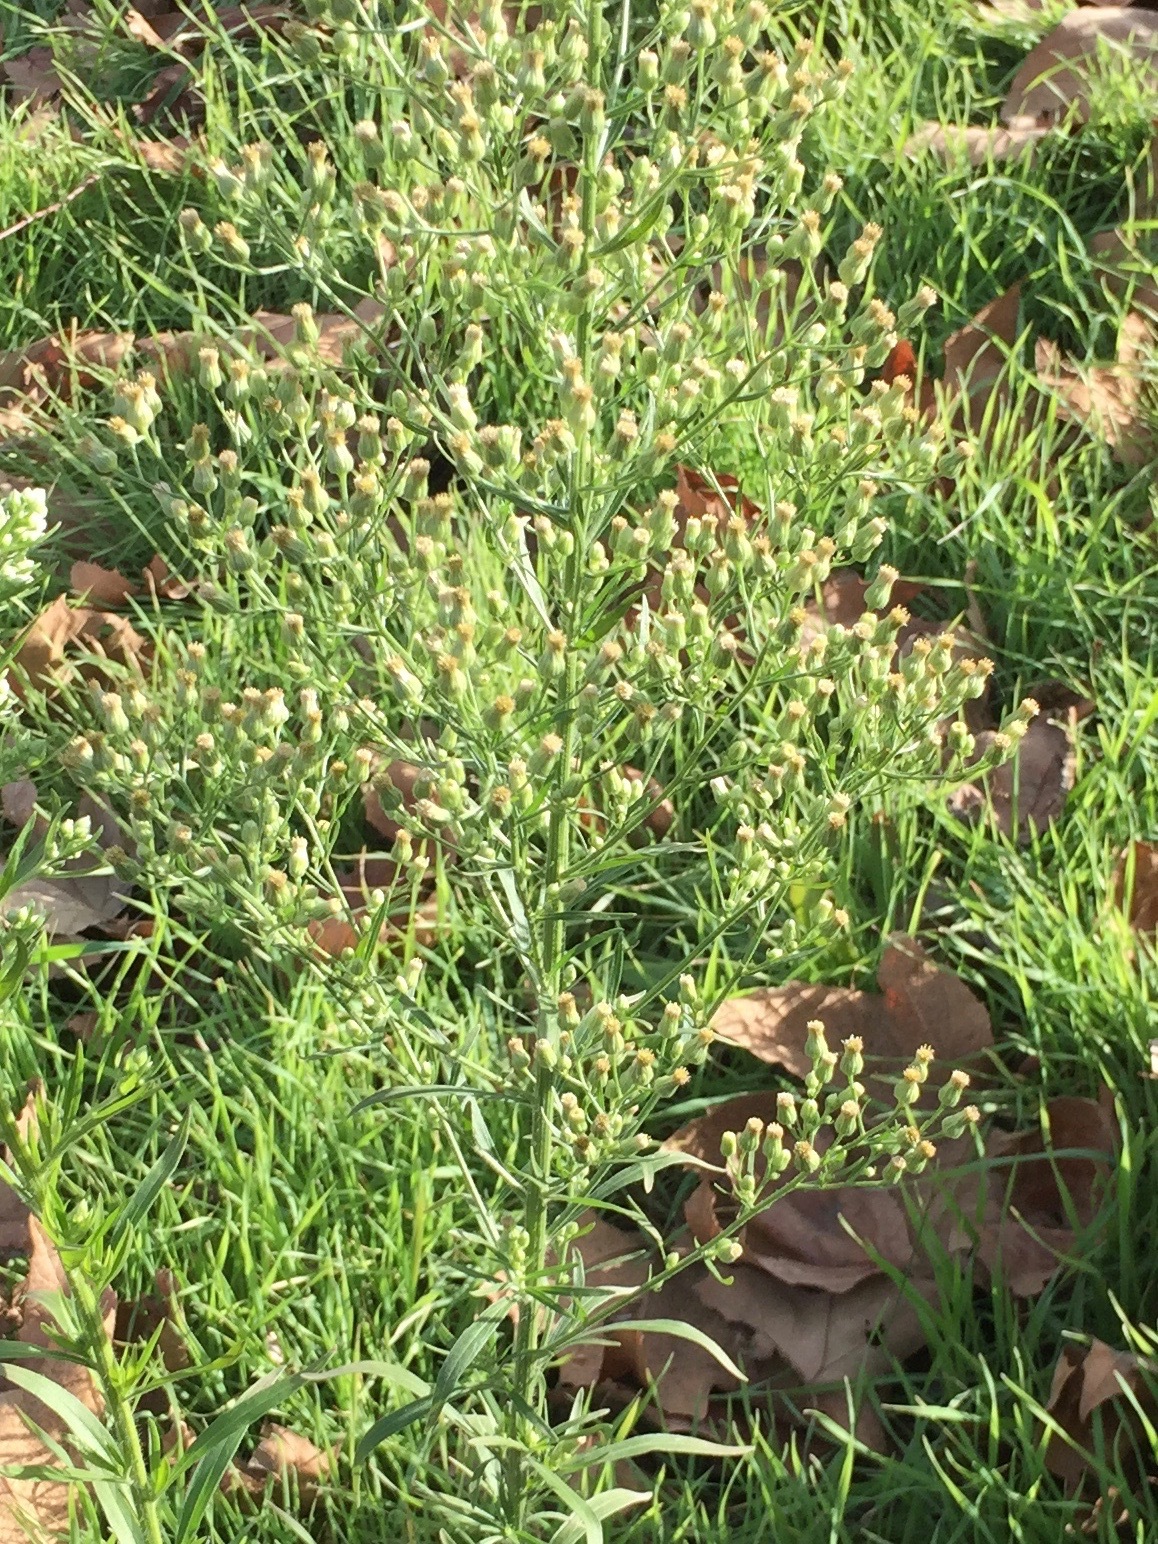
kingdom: Plantae
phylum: Tracheophyta
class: Magnoliopsida
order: Asterales
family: Asteraceae
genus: Erigeron
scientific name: Erigeron canadensis
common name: Canadian fleabane
